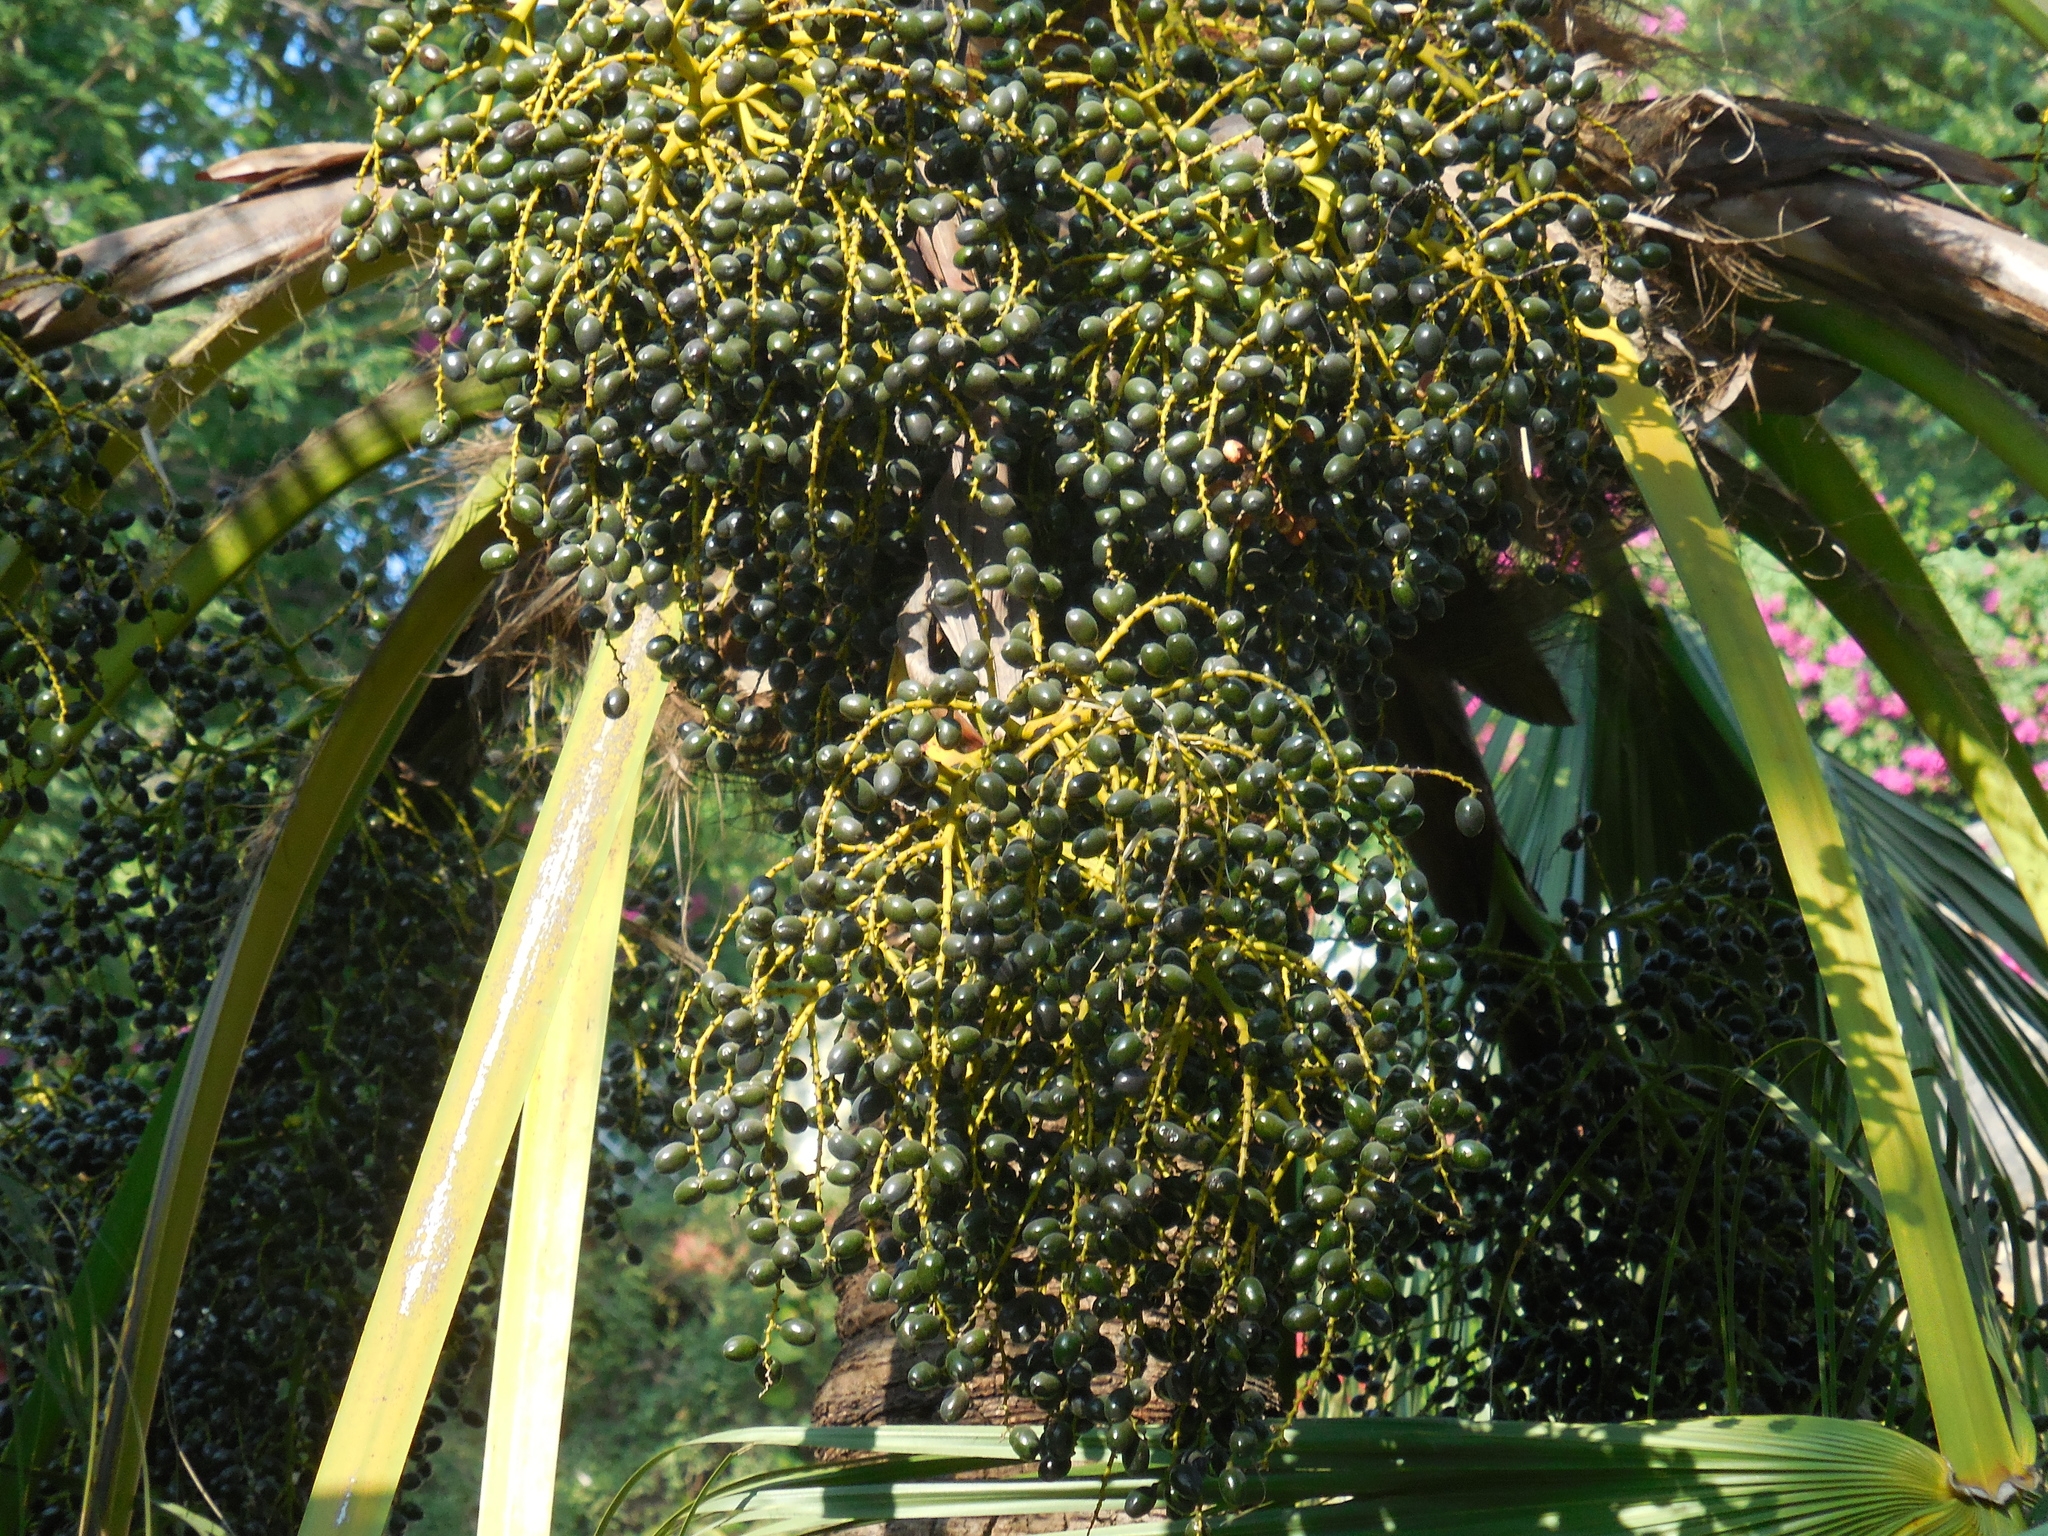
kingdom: Plantae
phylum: Tracheophyta
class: Liliopsida
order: Arecales
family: Arecaceae
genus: Livistona
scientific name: Livistona chinensis
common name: Fountain palm
